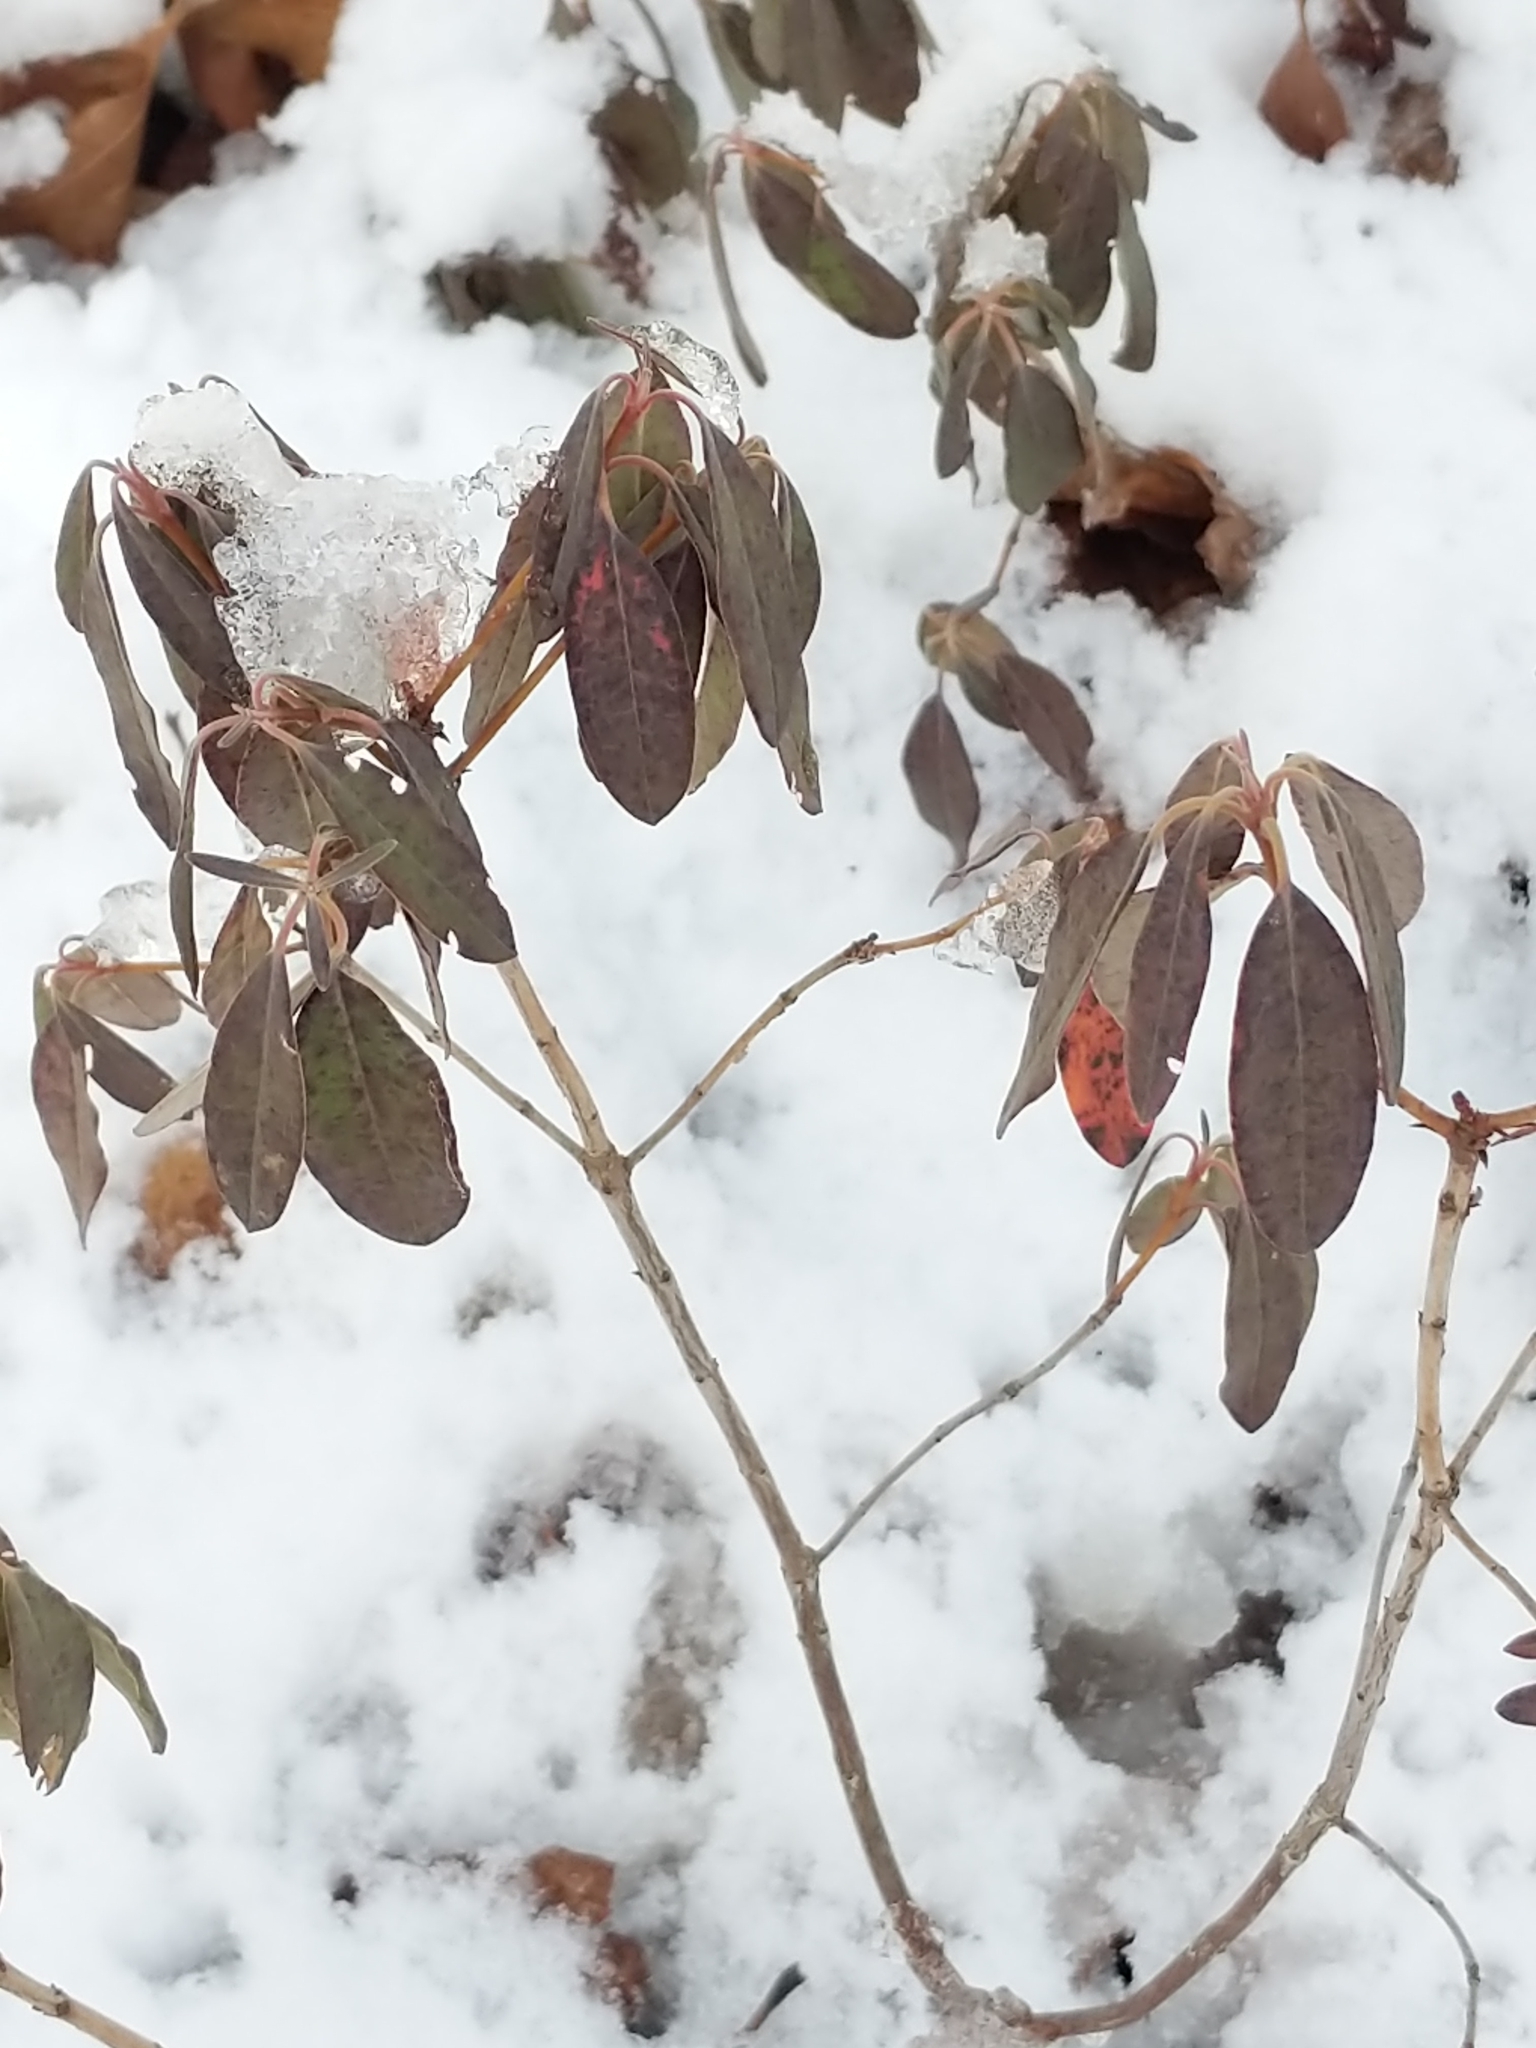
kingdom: Plantae
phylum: Tracheophyta
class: Magnoliopsida
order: Ericales
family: Ericaceae
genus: Kalmia
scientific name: Kalmia angustifolia
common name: Sheep-laurel
